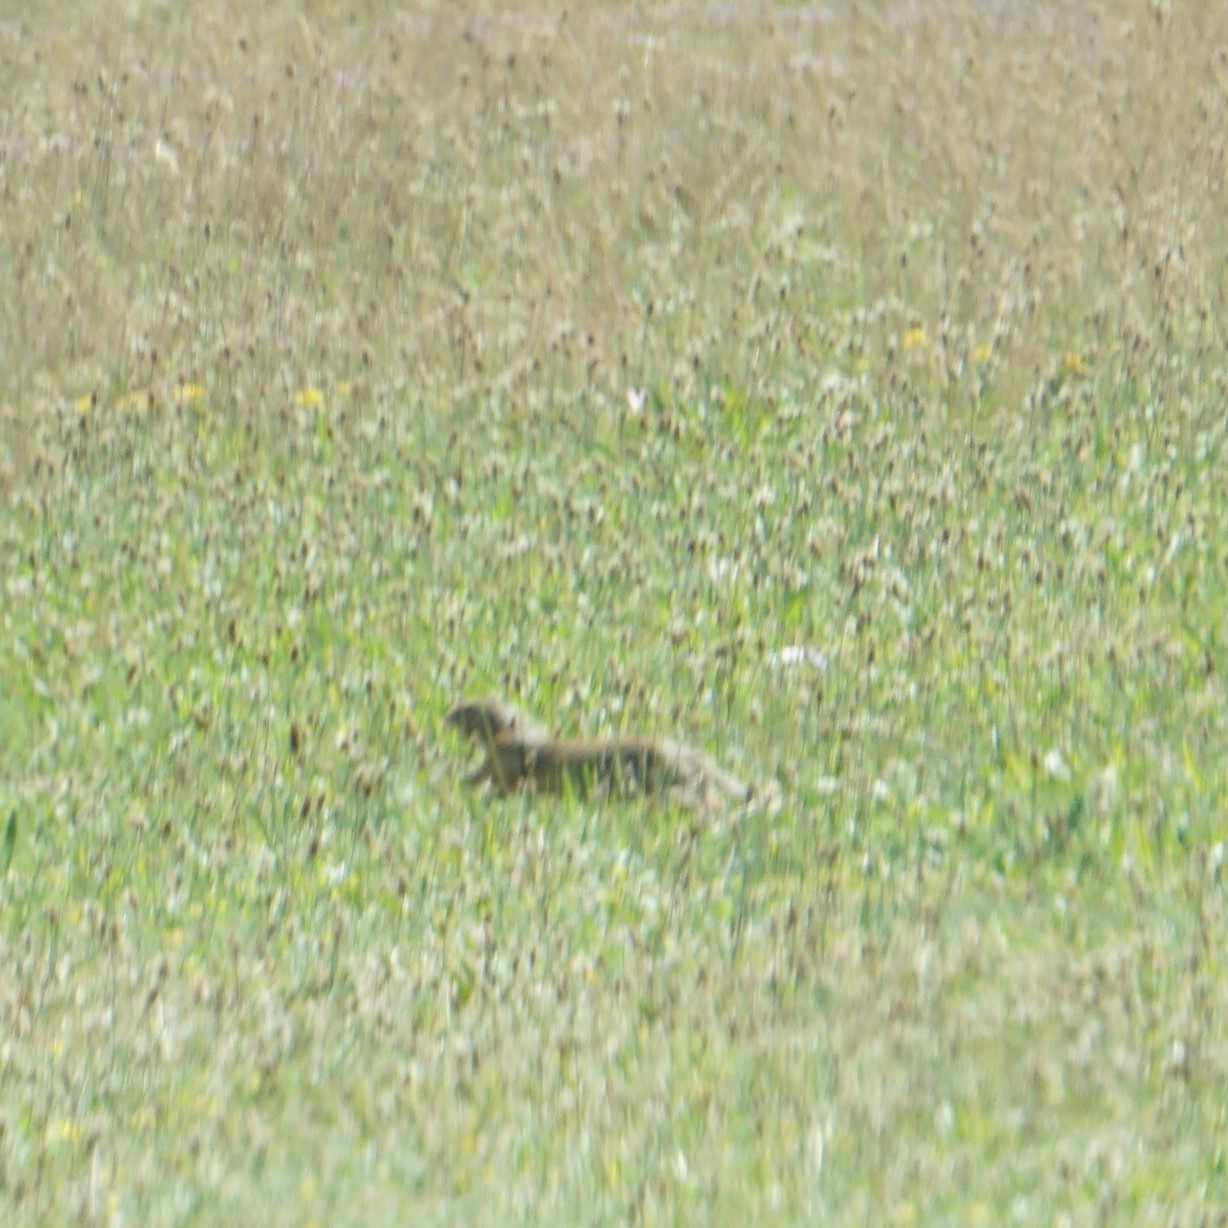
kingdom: Animalia
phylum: Chordata
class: Mammalia
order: Rodentia
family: Sciuridae
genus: Spermophilus
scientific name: Spermophilus citellus
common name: European ground squirrel
